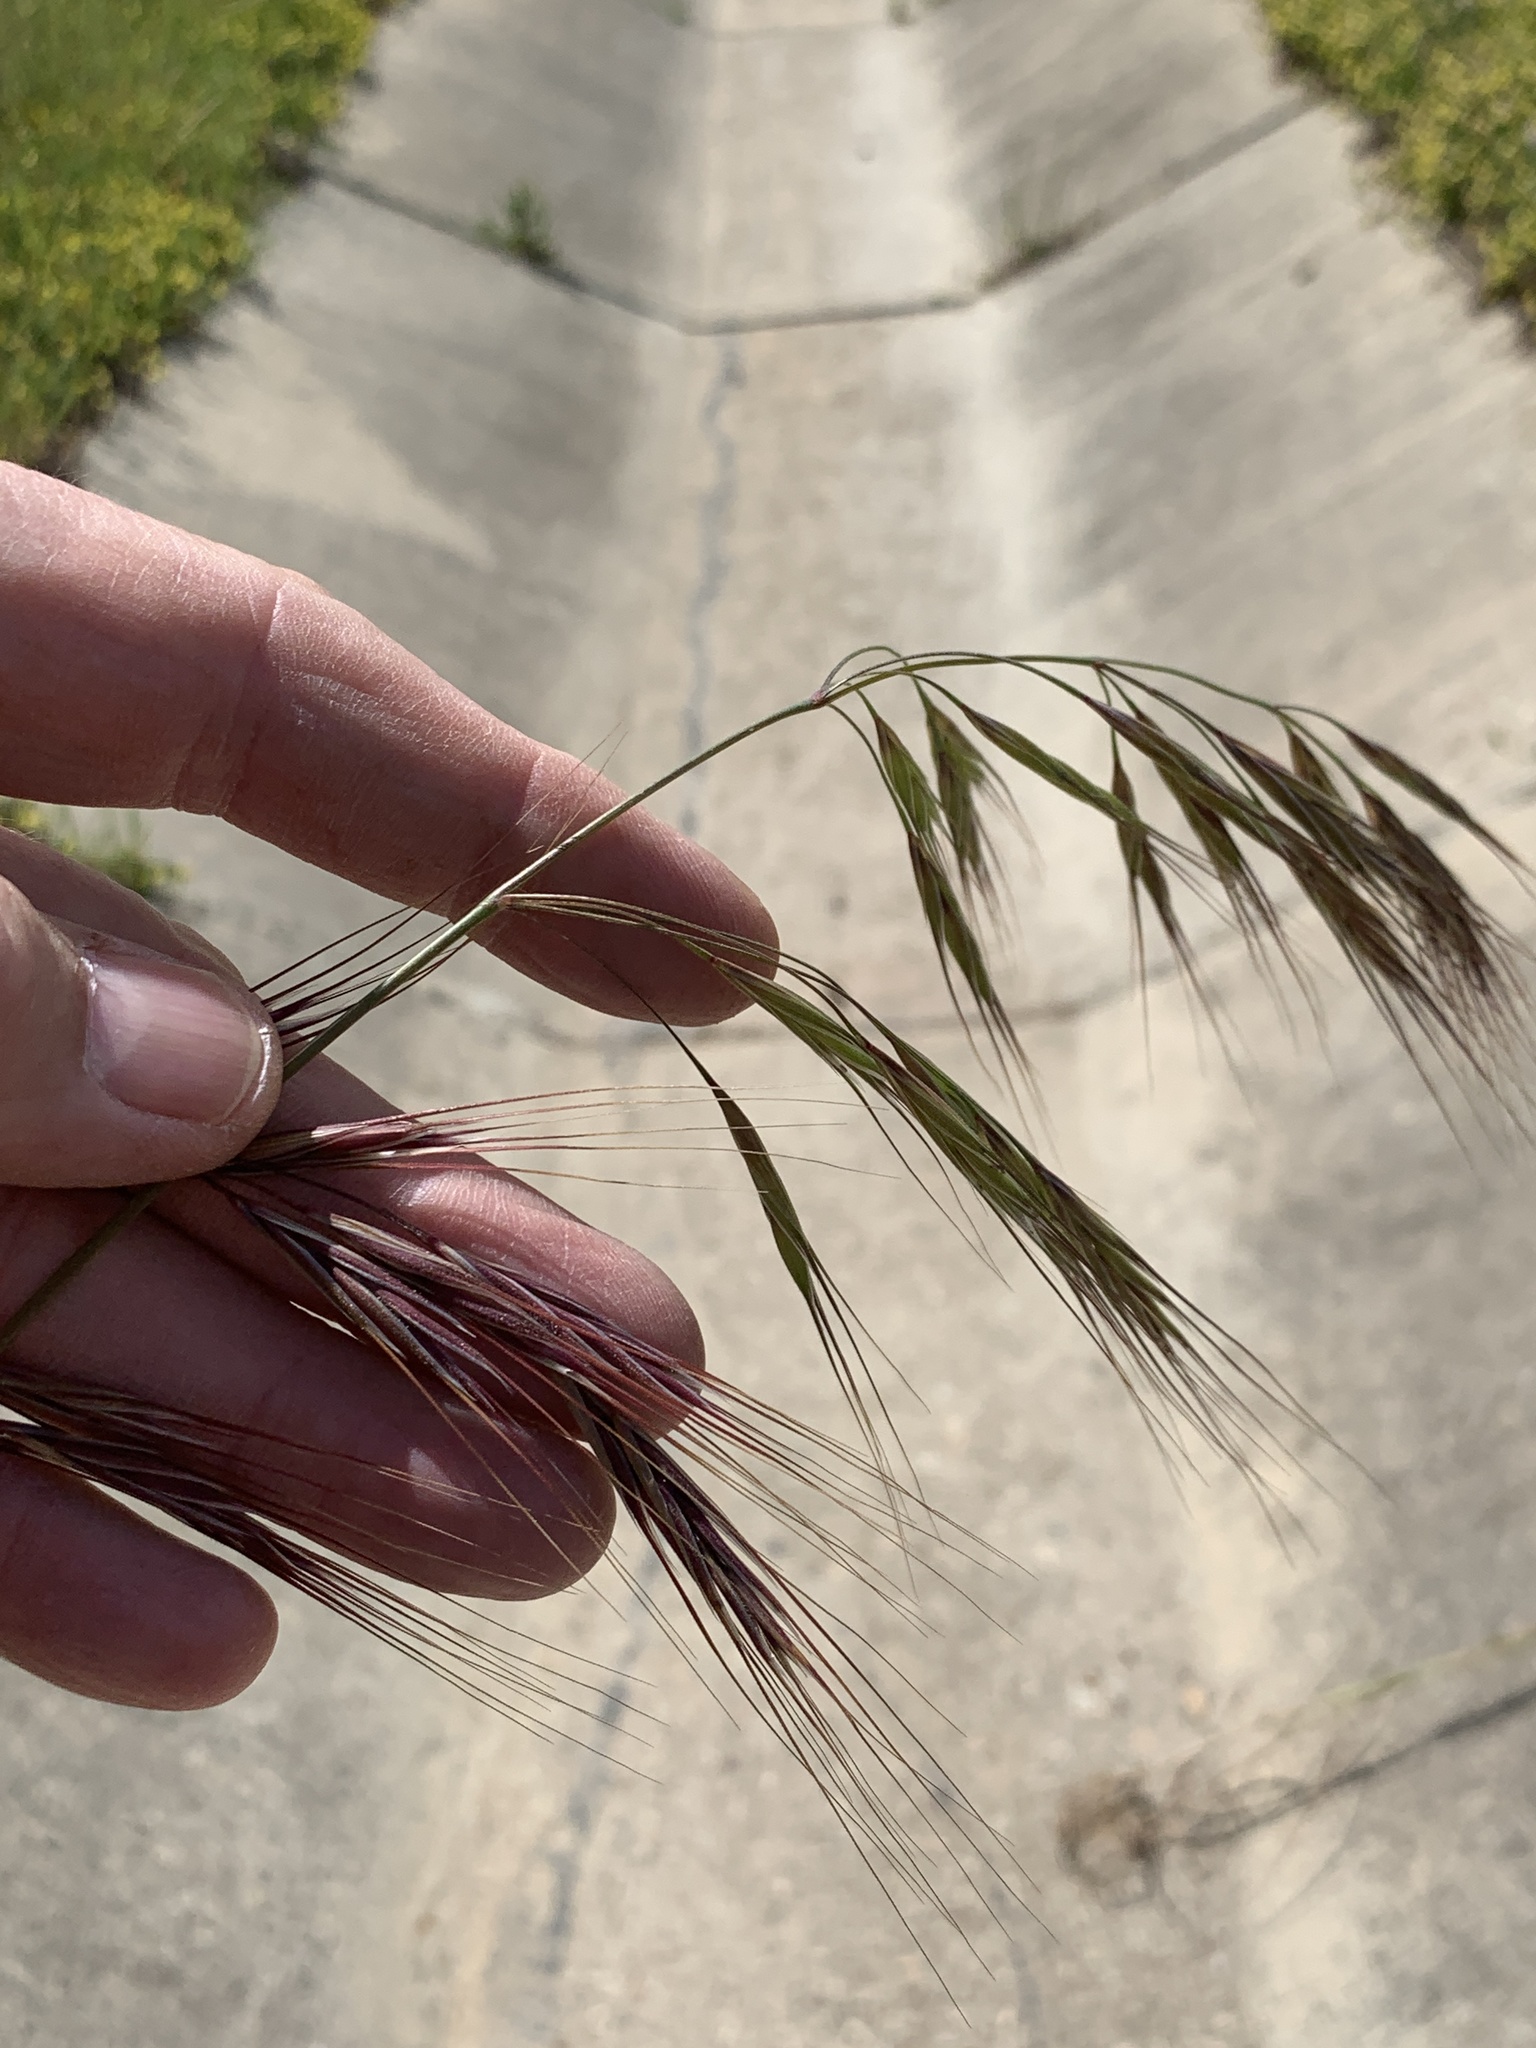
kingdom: Plantae
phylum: Tracheophyta
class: Liliopsida
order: Poales
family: Poaceae
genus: Bromus
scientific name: Bromus diandrus
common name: Ripgut brome
